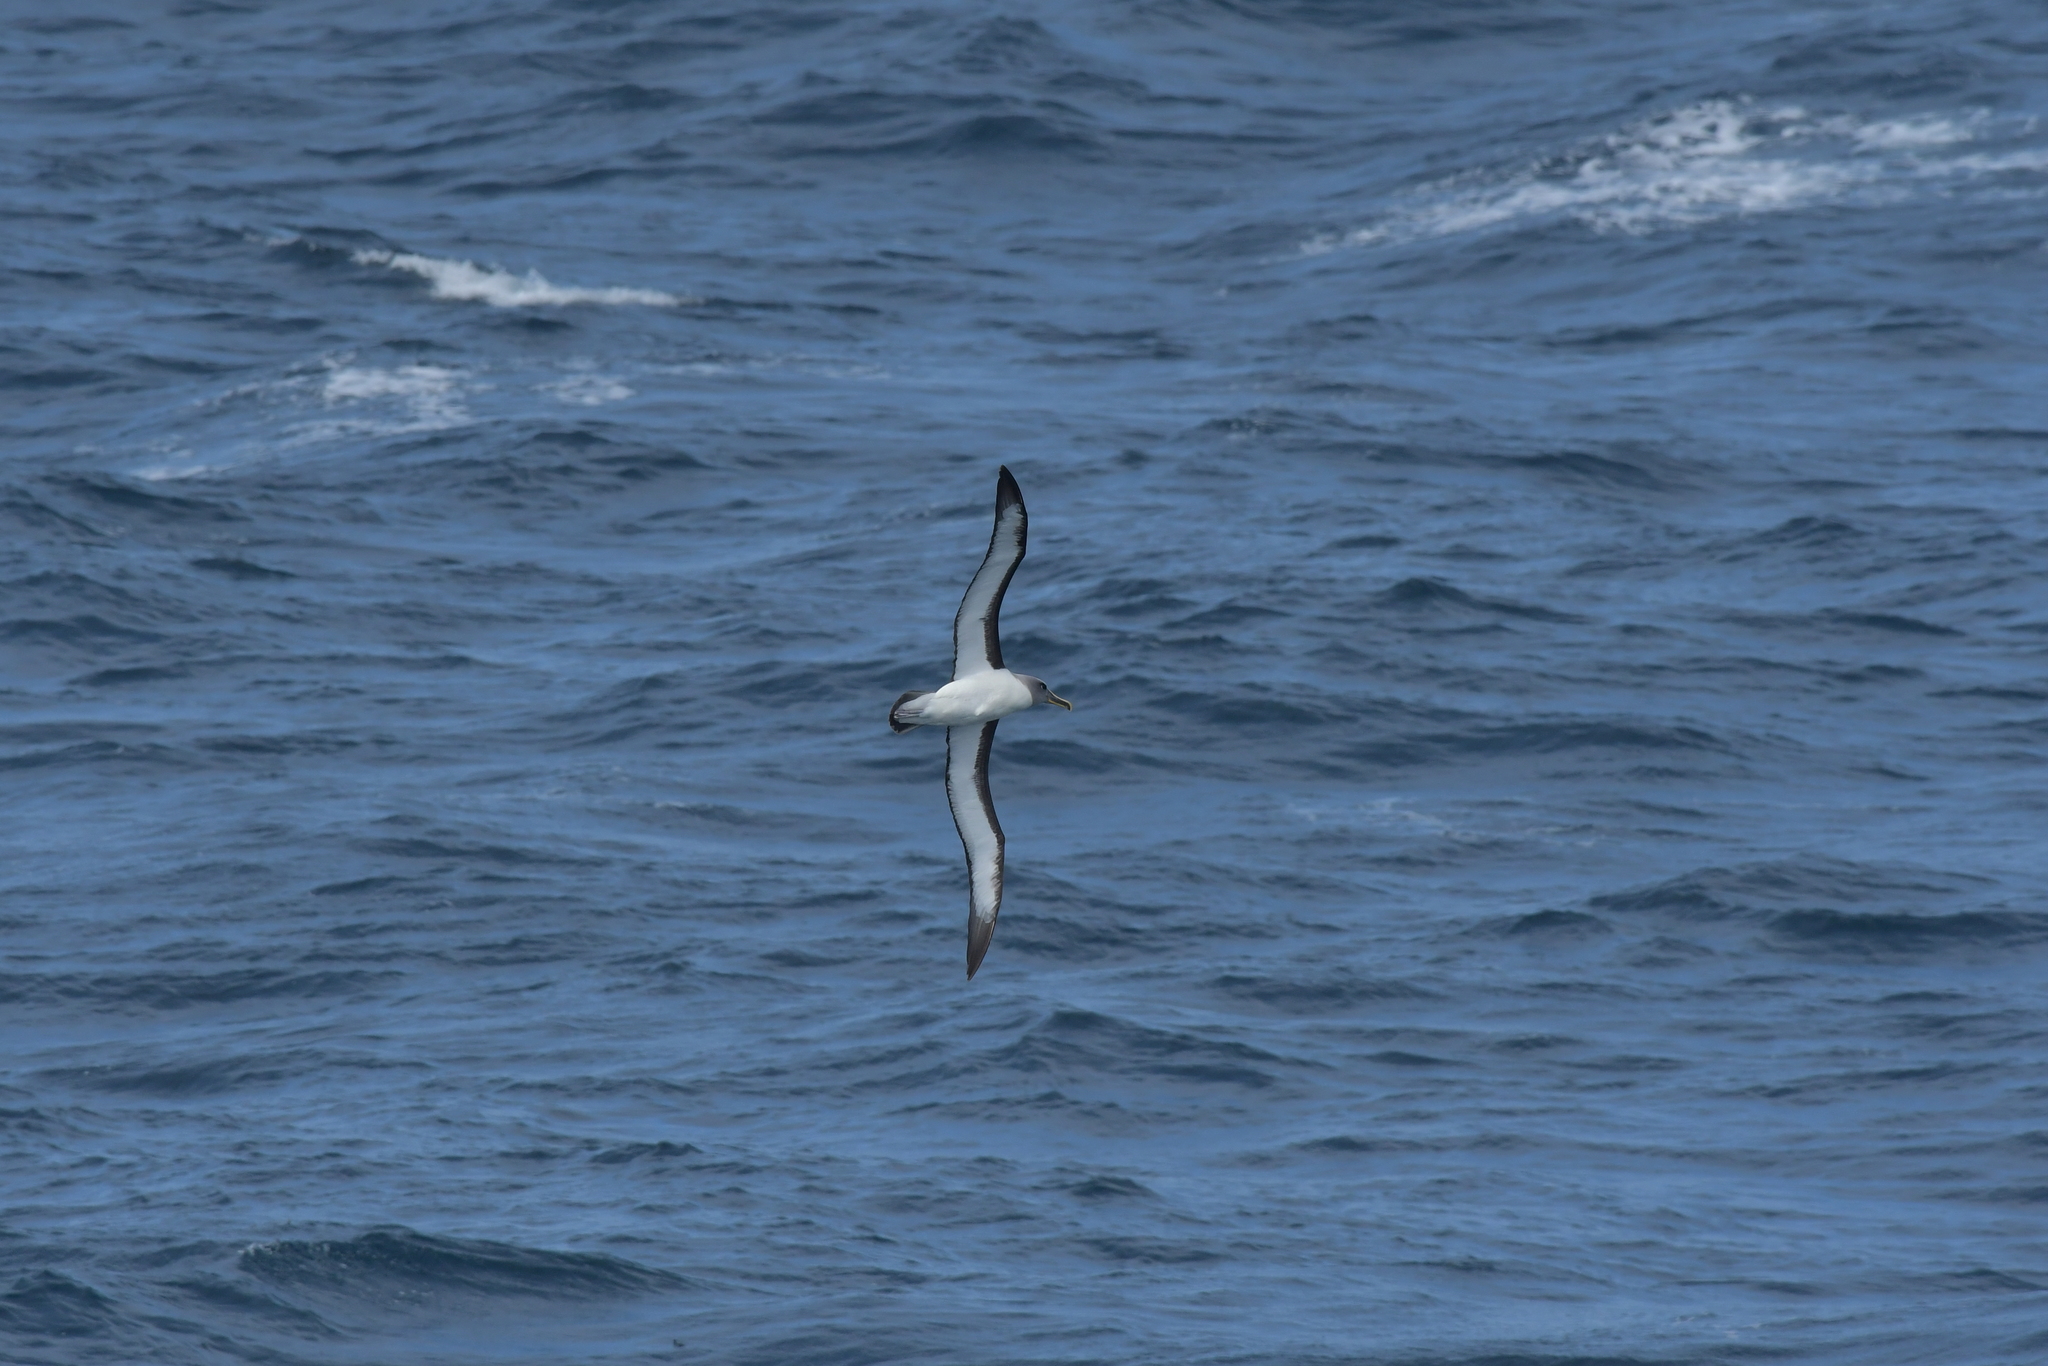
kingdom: Animalia
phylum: Chordata
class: Aves
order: Procellariiformes
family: Diomedeidae
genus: Thalassarche
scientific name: Thalassarche bulleri
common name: Buller's albatross
